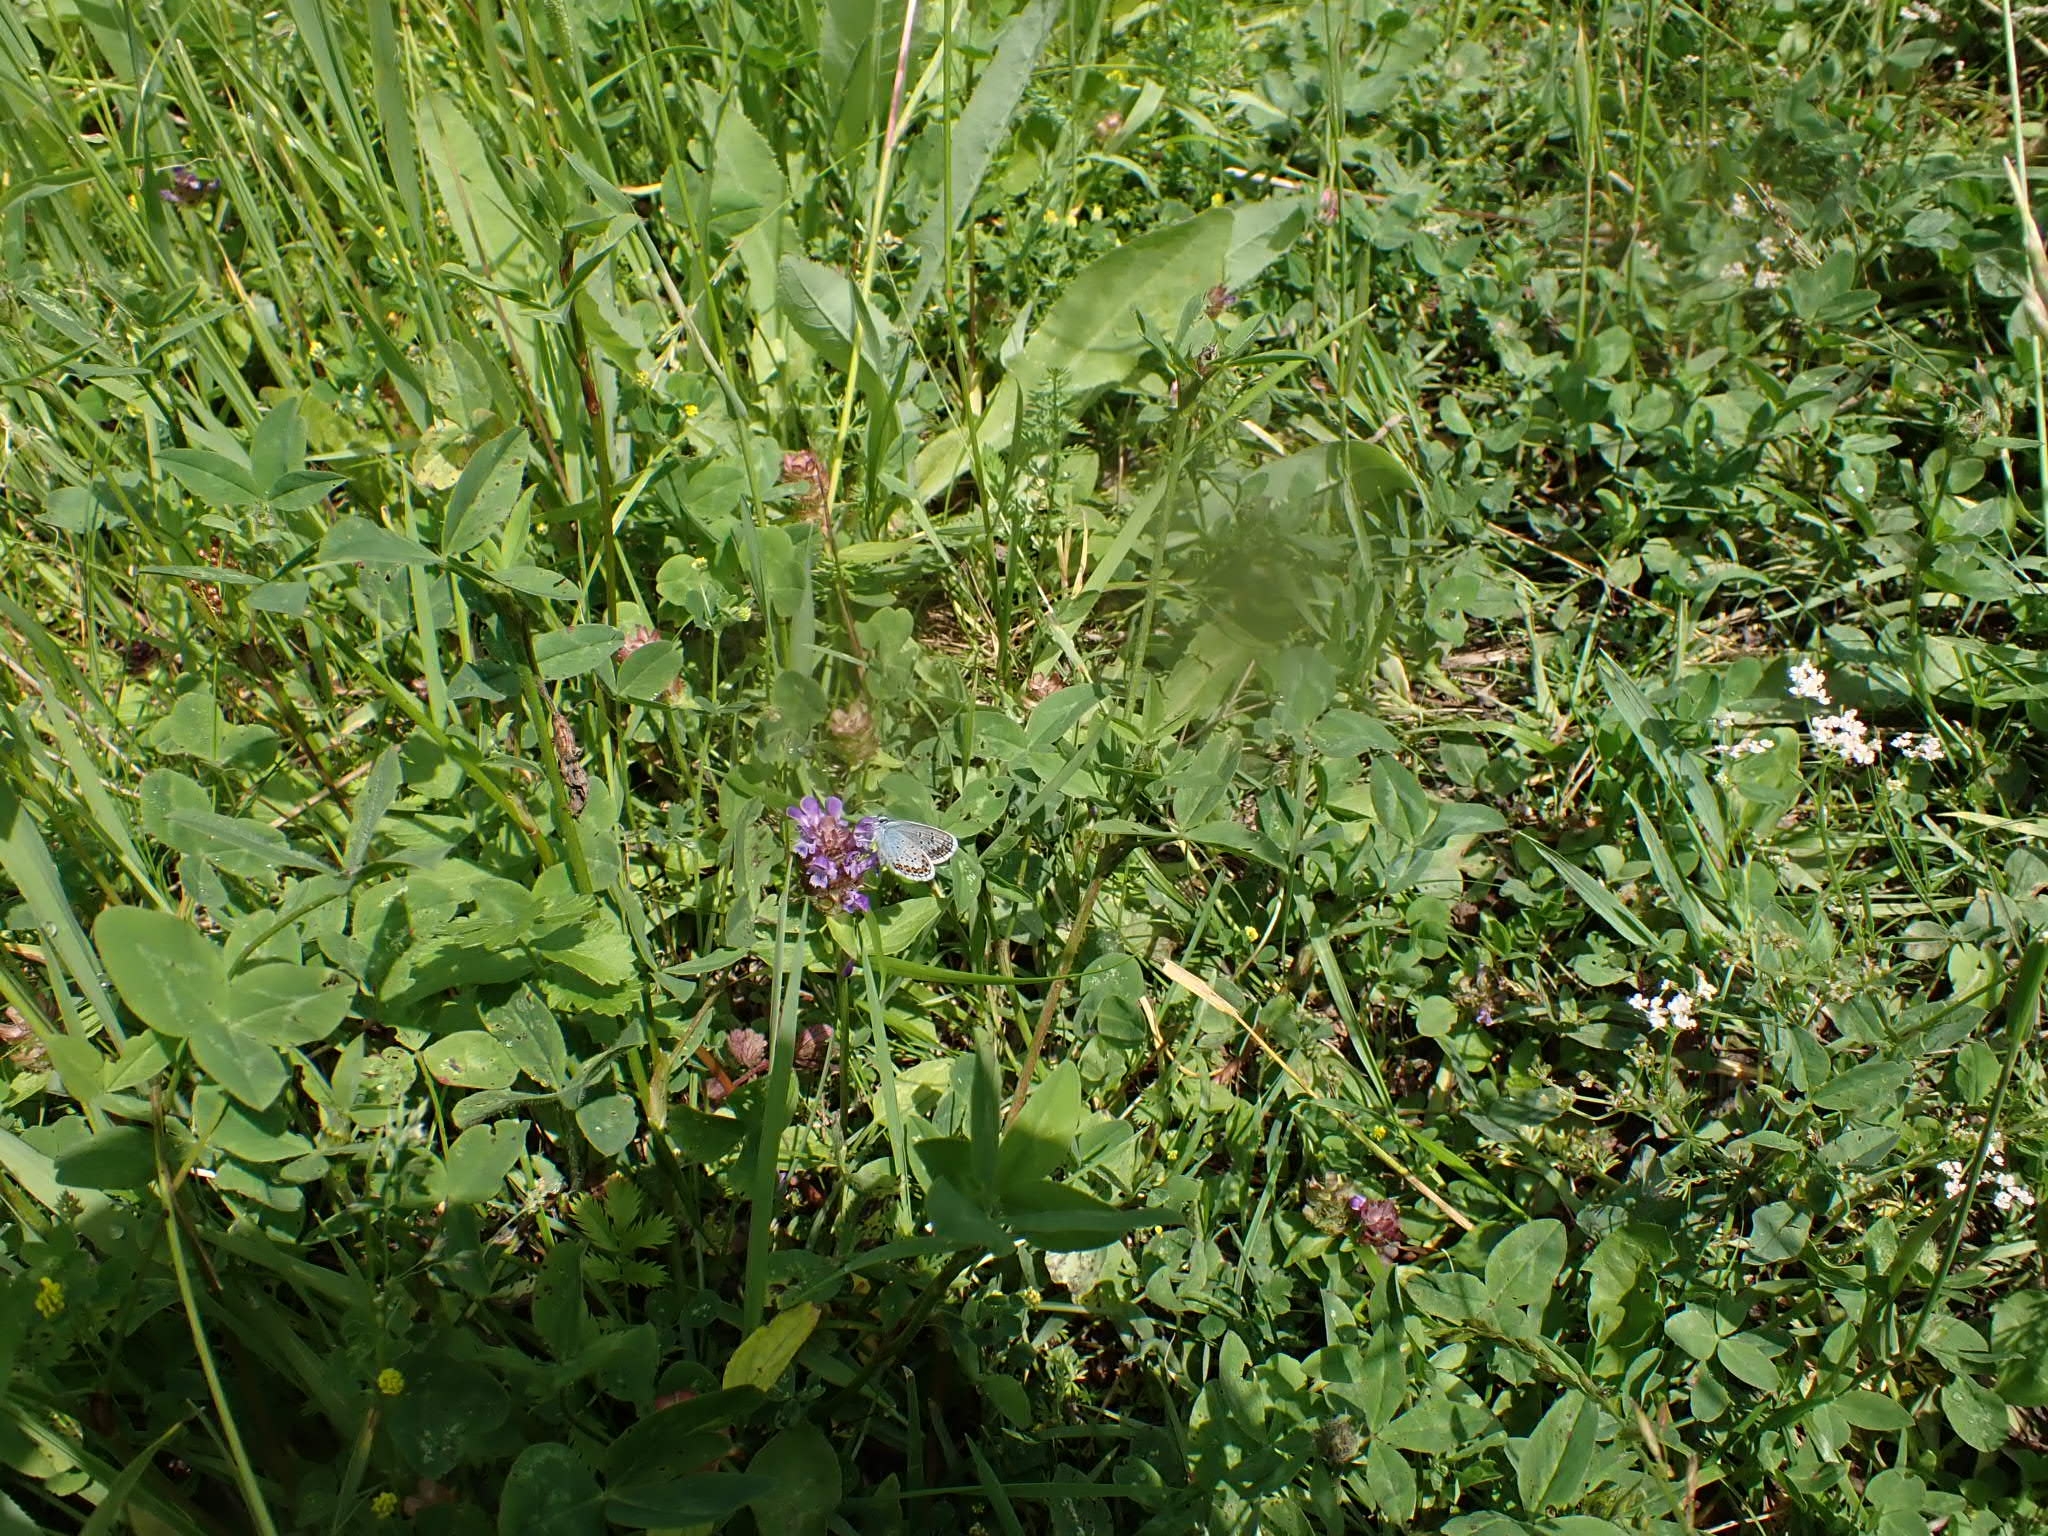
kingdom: Animalia
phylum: Arthropoda
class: Insecta
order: Lepidoptera
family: Lycaenidae
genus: Plebejus
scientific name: Plebejus argus
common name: Silver-studded blue
